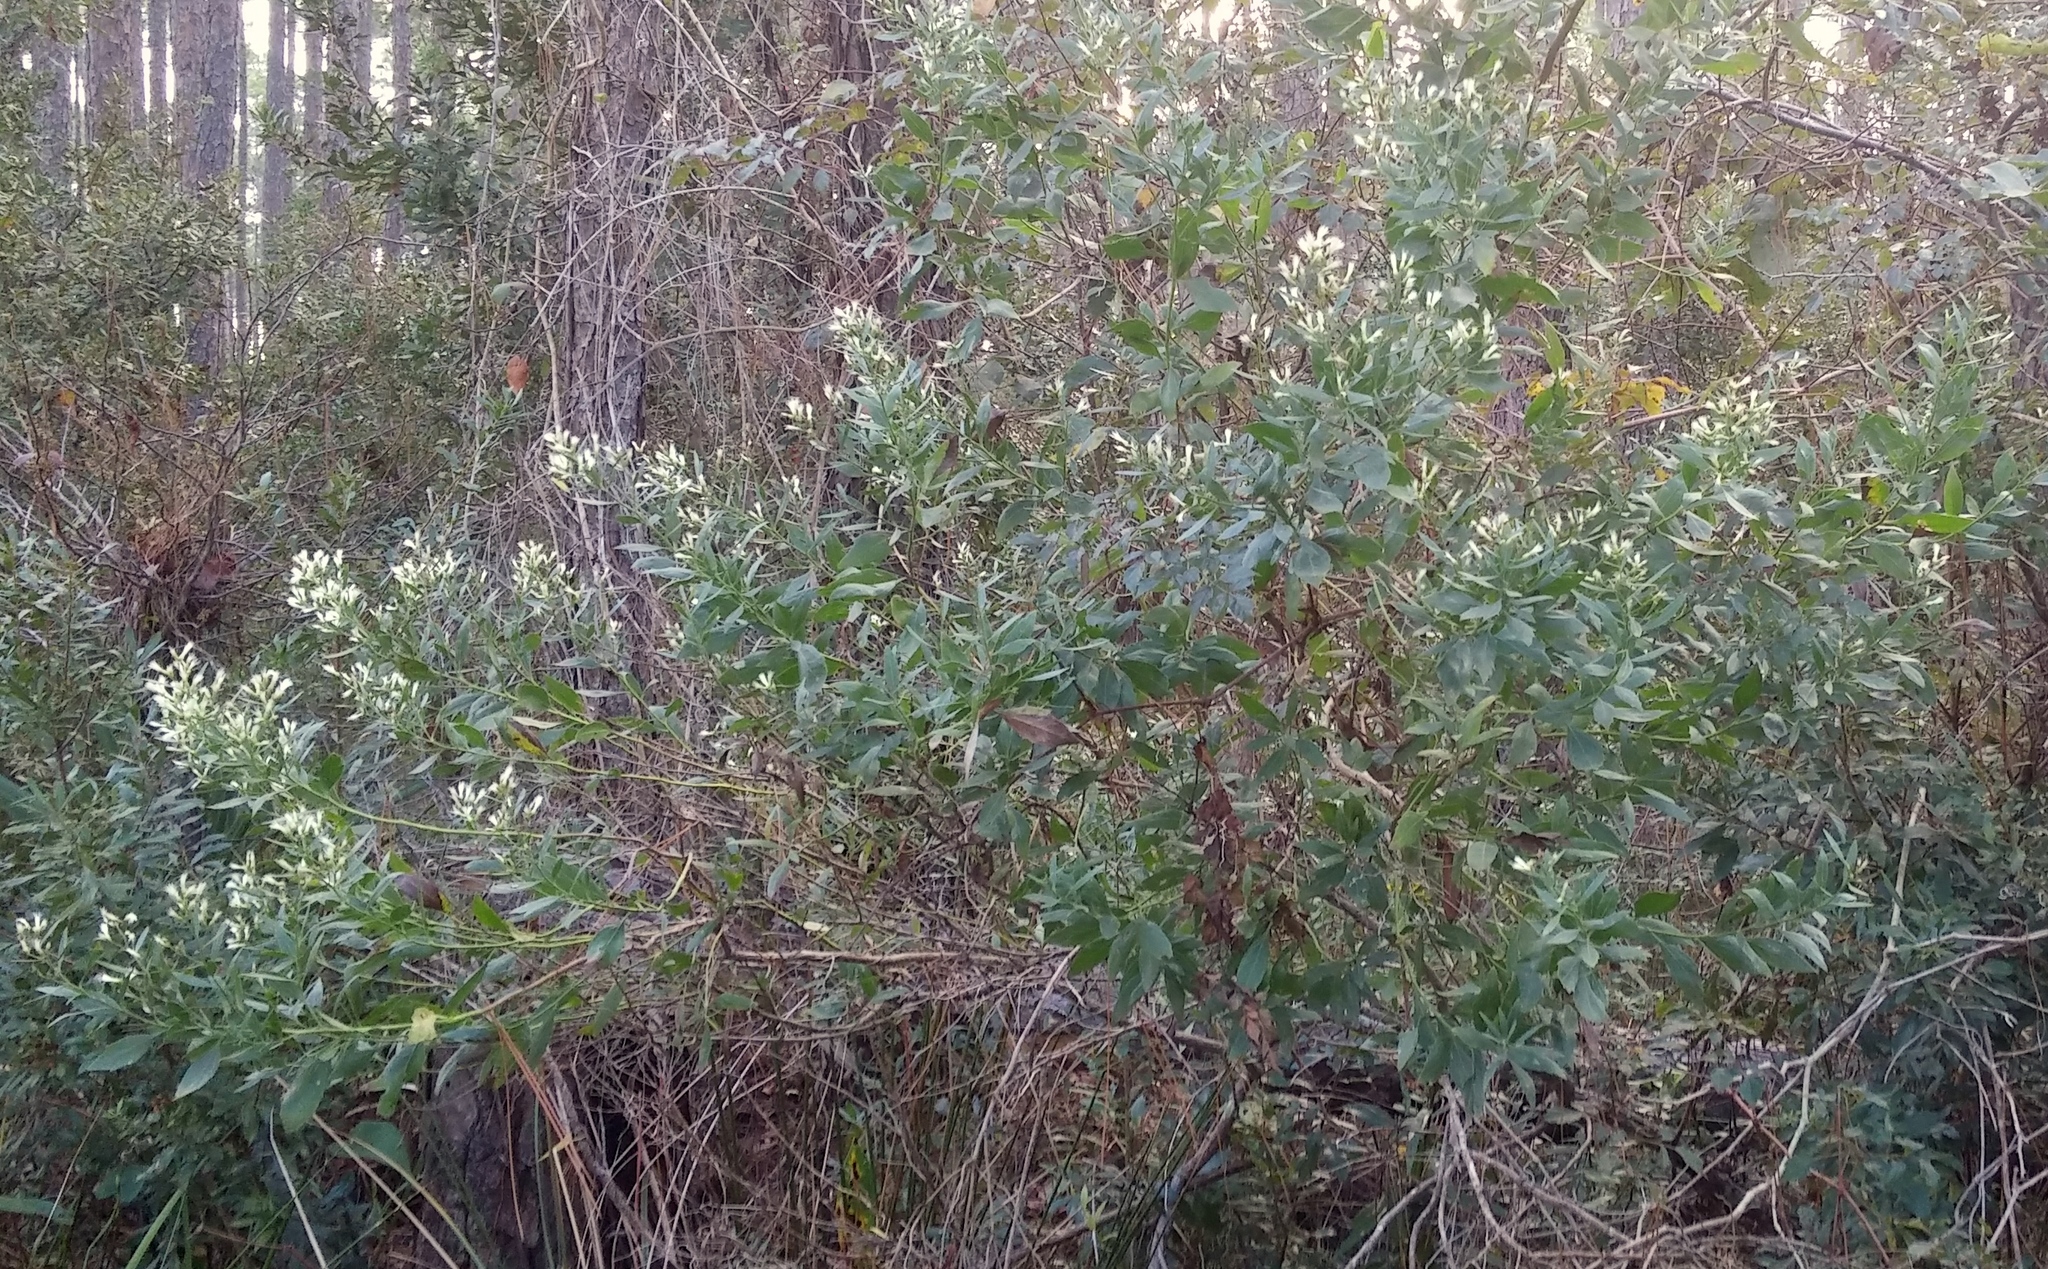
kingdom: Plantae
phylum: Tracheophyta
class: Magnoliopsida
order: Asterales
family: Asteraceae
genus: Baccharis
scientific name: Baccharis halimifolia
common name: Eastern baccharis
